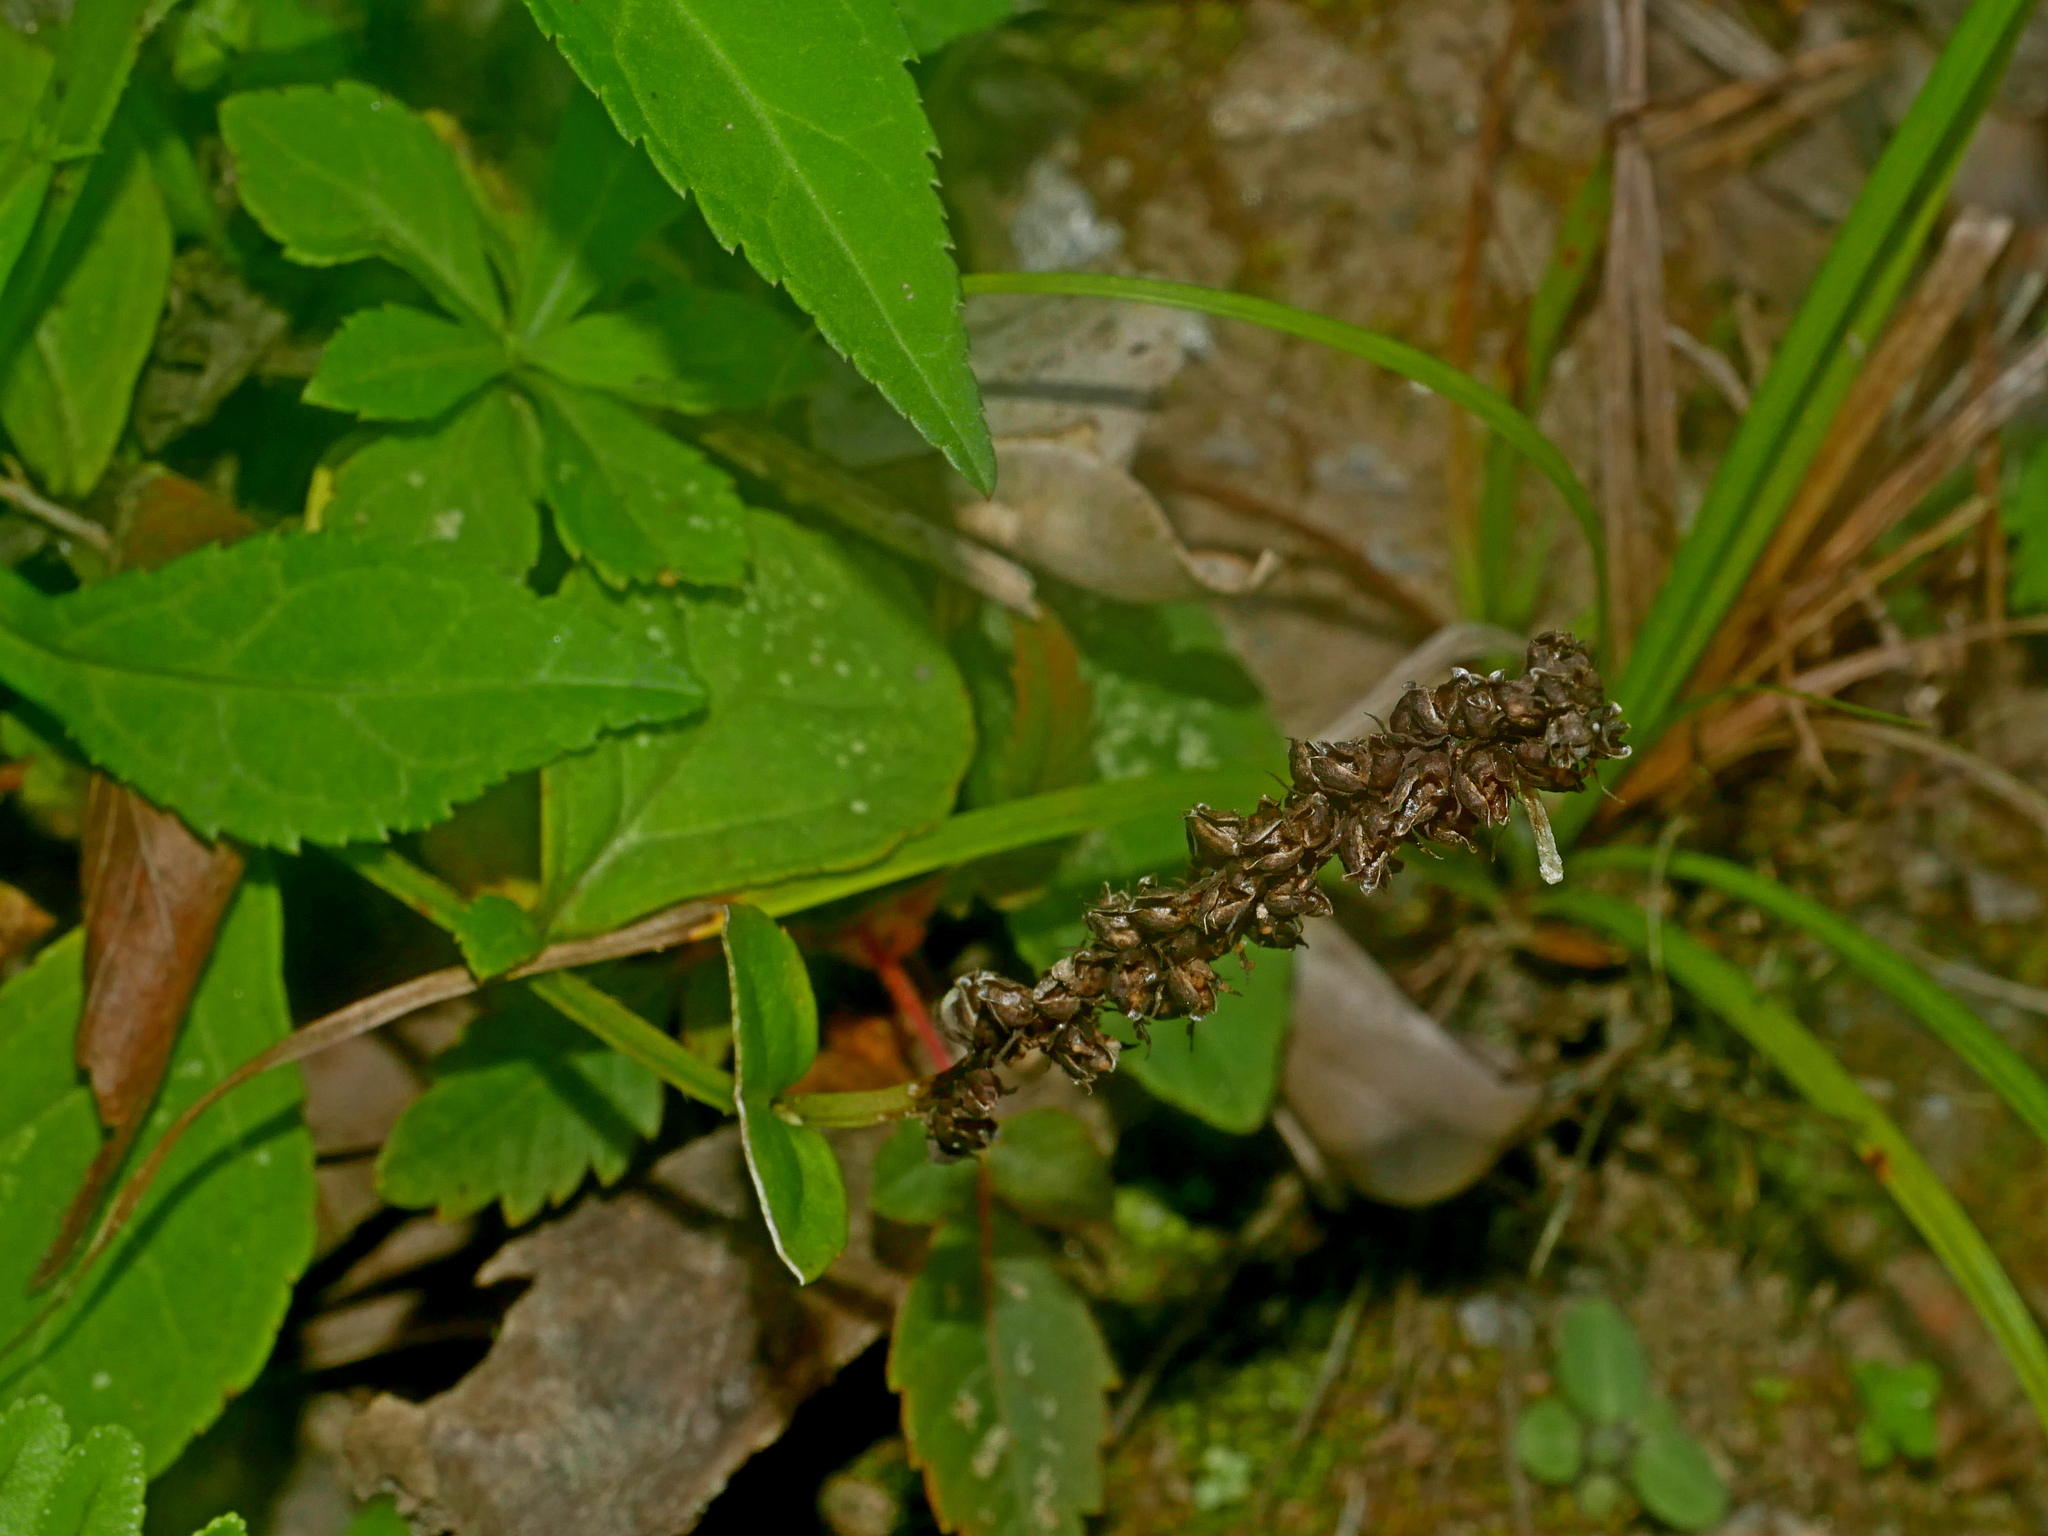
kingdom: Plantae
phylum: Tracheophyta
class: Magnoliopsida
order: Lamiales
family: Plantaginaceae
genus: Veronicastrum
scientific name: Veronicastrum loshanense
